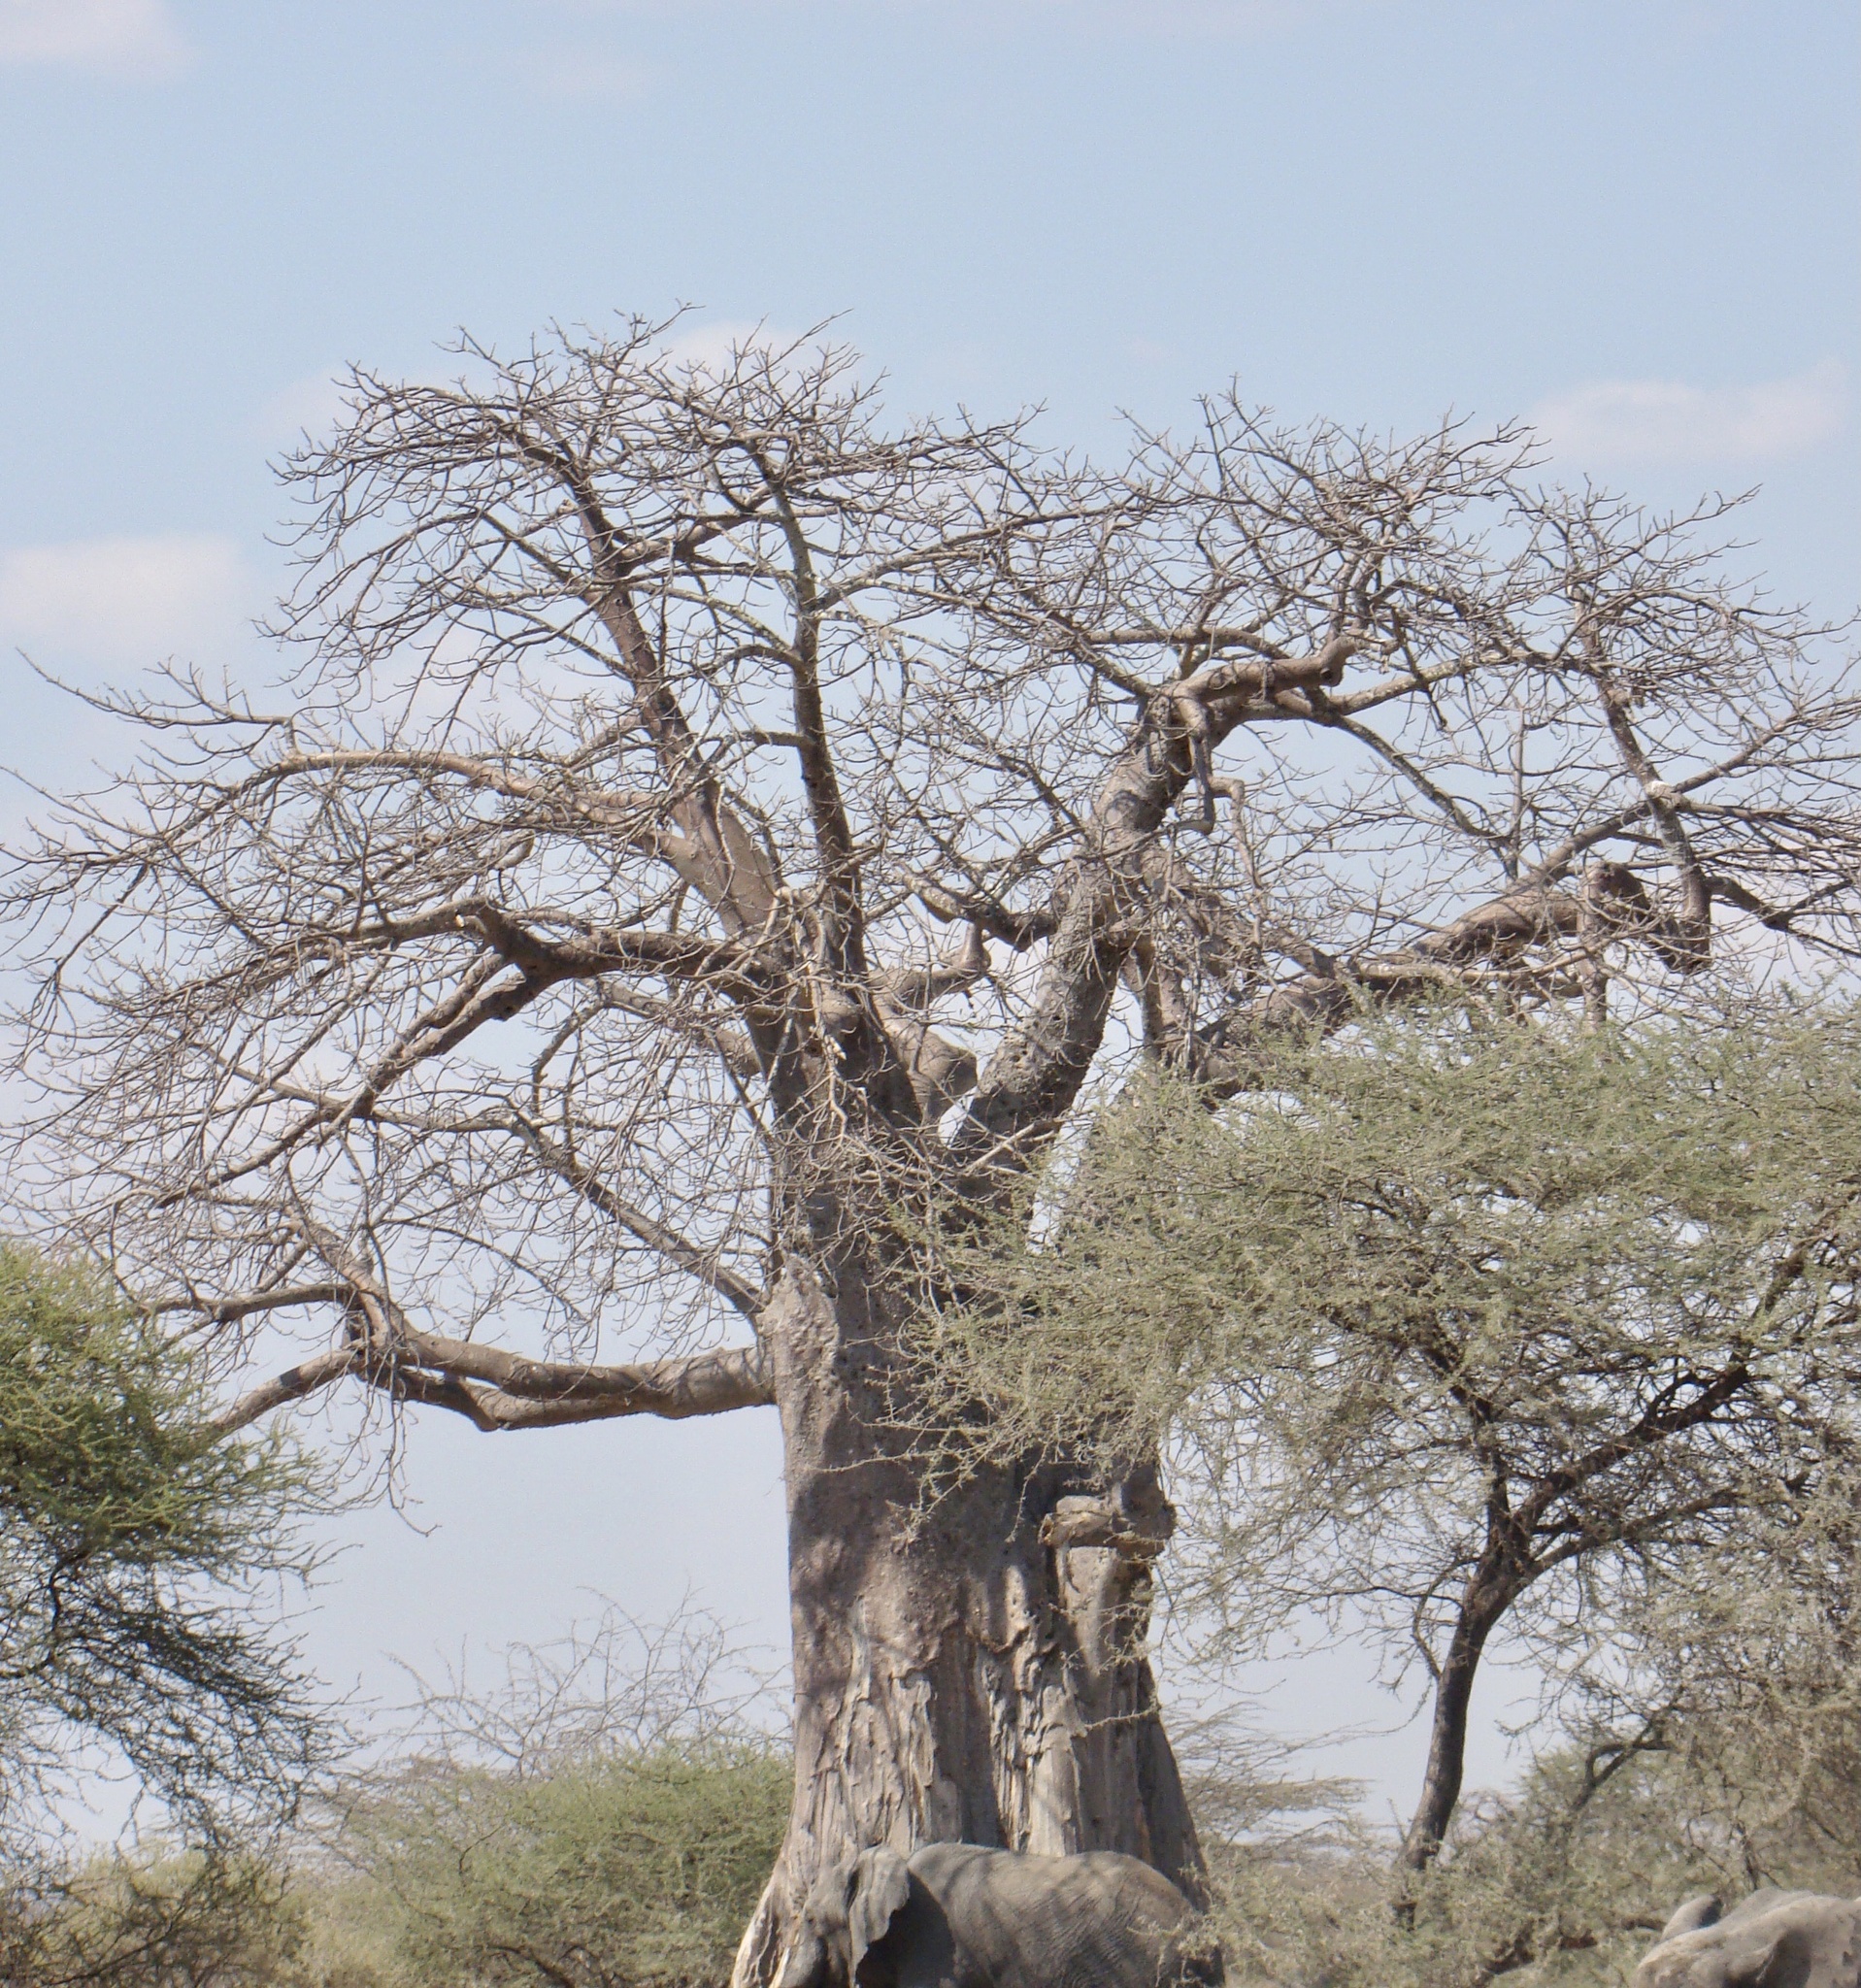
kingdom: Plantae
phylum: Tracheophyta
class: Magnoliopsida
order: Malvales
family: Malvaceae
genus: Adansonia
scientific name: Adansonia digitata
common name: Dead-rat-tree
